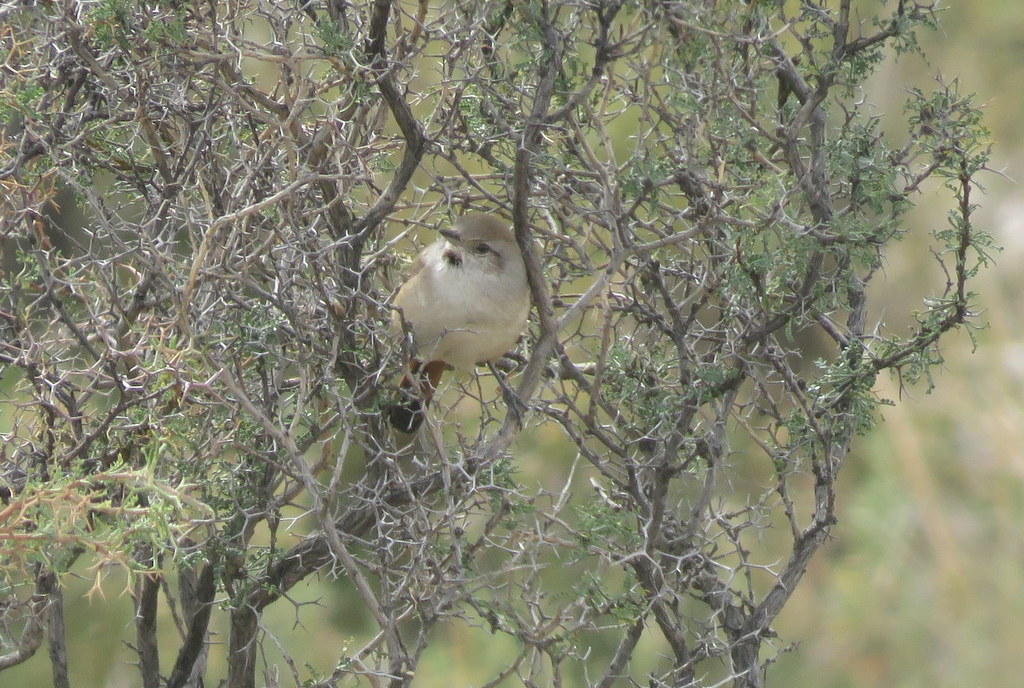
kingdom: Animalia
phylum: Chordata
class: Aves
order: Passeriformes
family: Furnariidae
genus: Asthenes
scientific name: Asthenes dorbignyi
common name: Rusty-vented canastero
